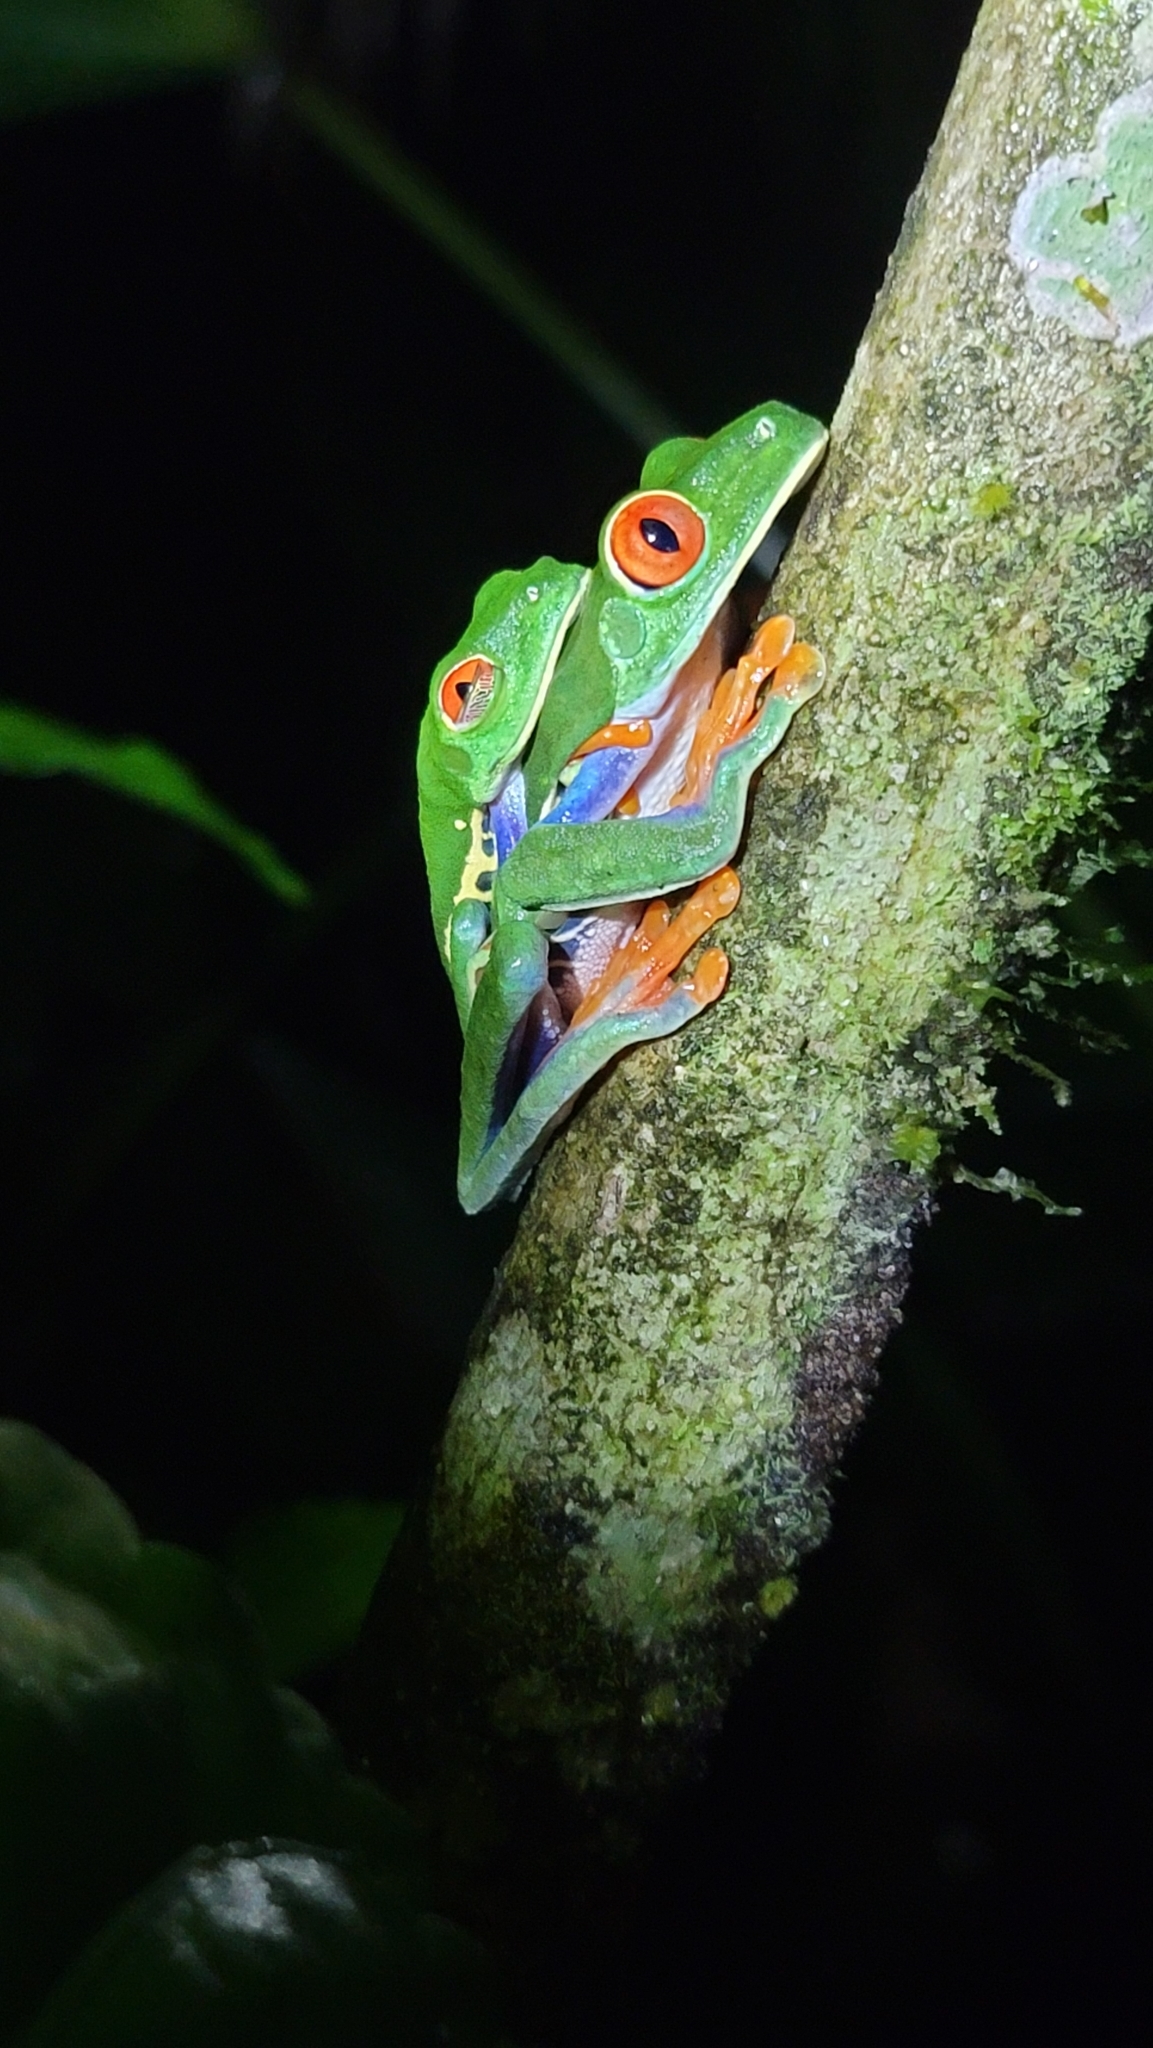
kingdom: Animalia
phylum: Chordata
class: Amphibia
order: Anura
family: Phyllomedusidae
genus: Agalychnis
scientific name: Agalychnis callidryas
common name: Red-eyed treefrog
